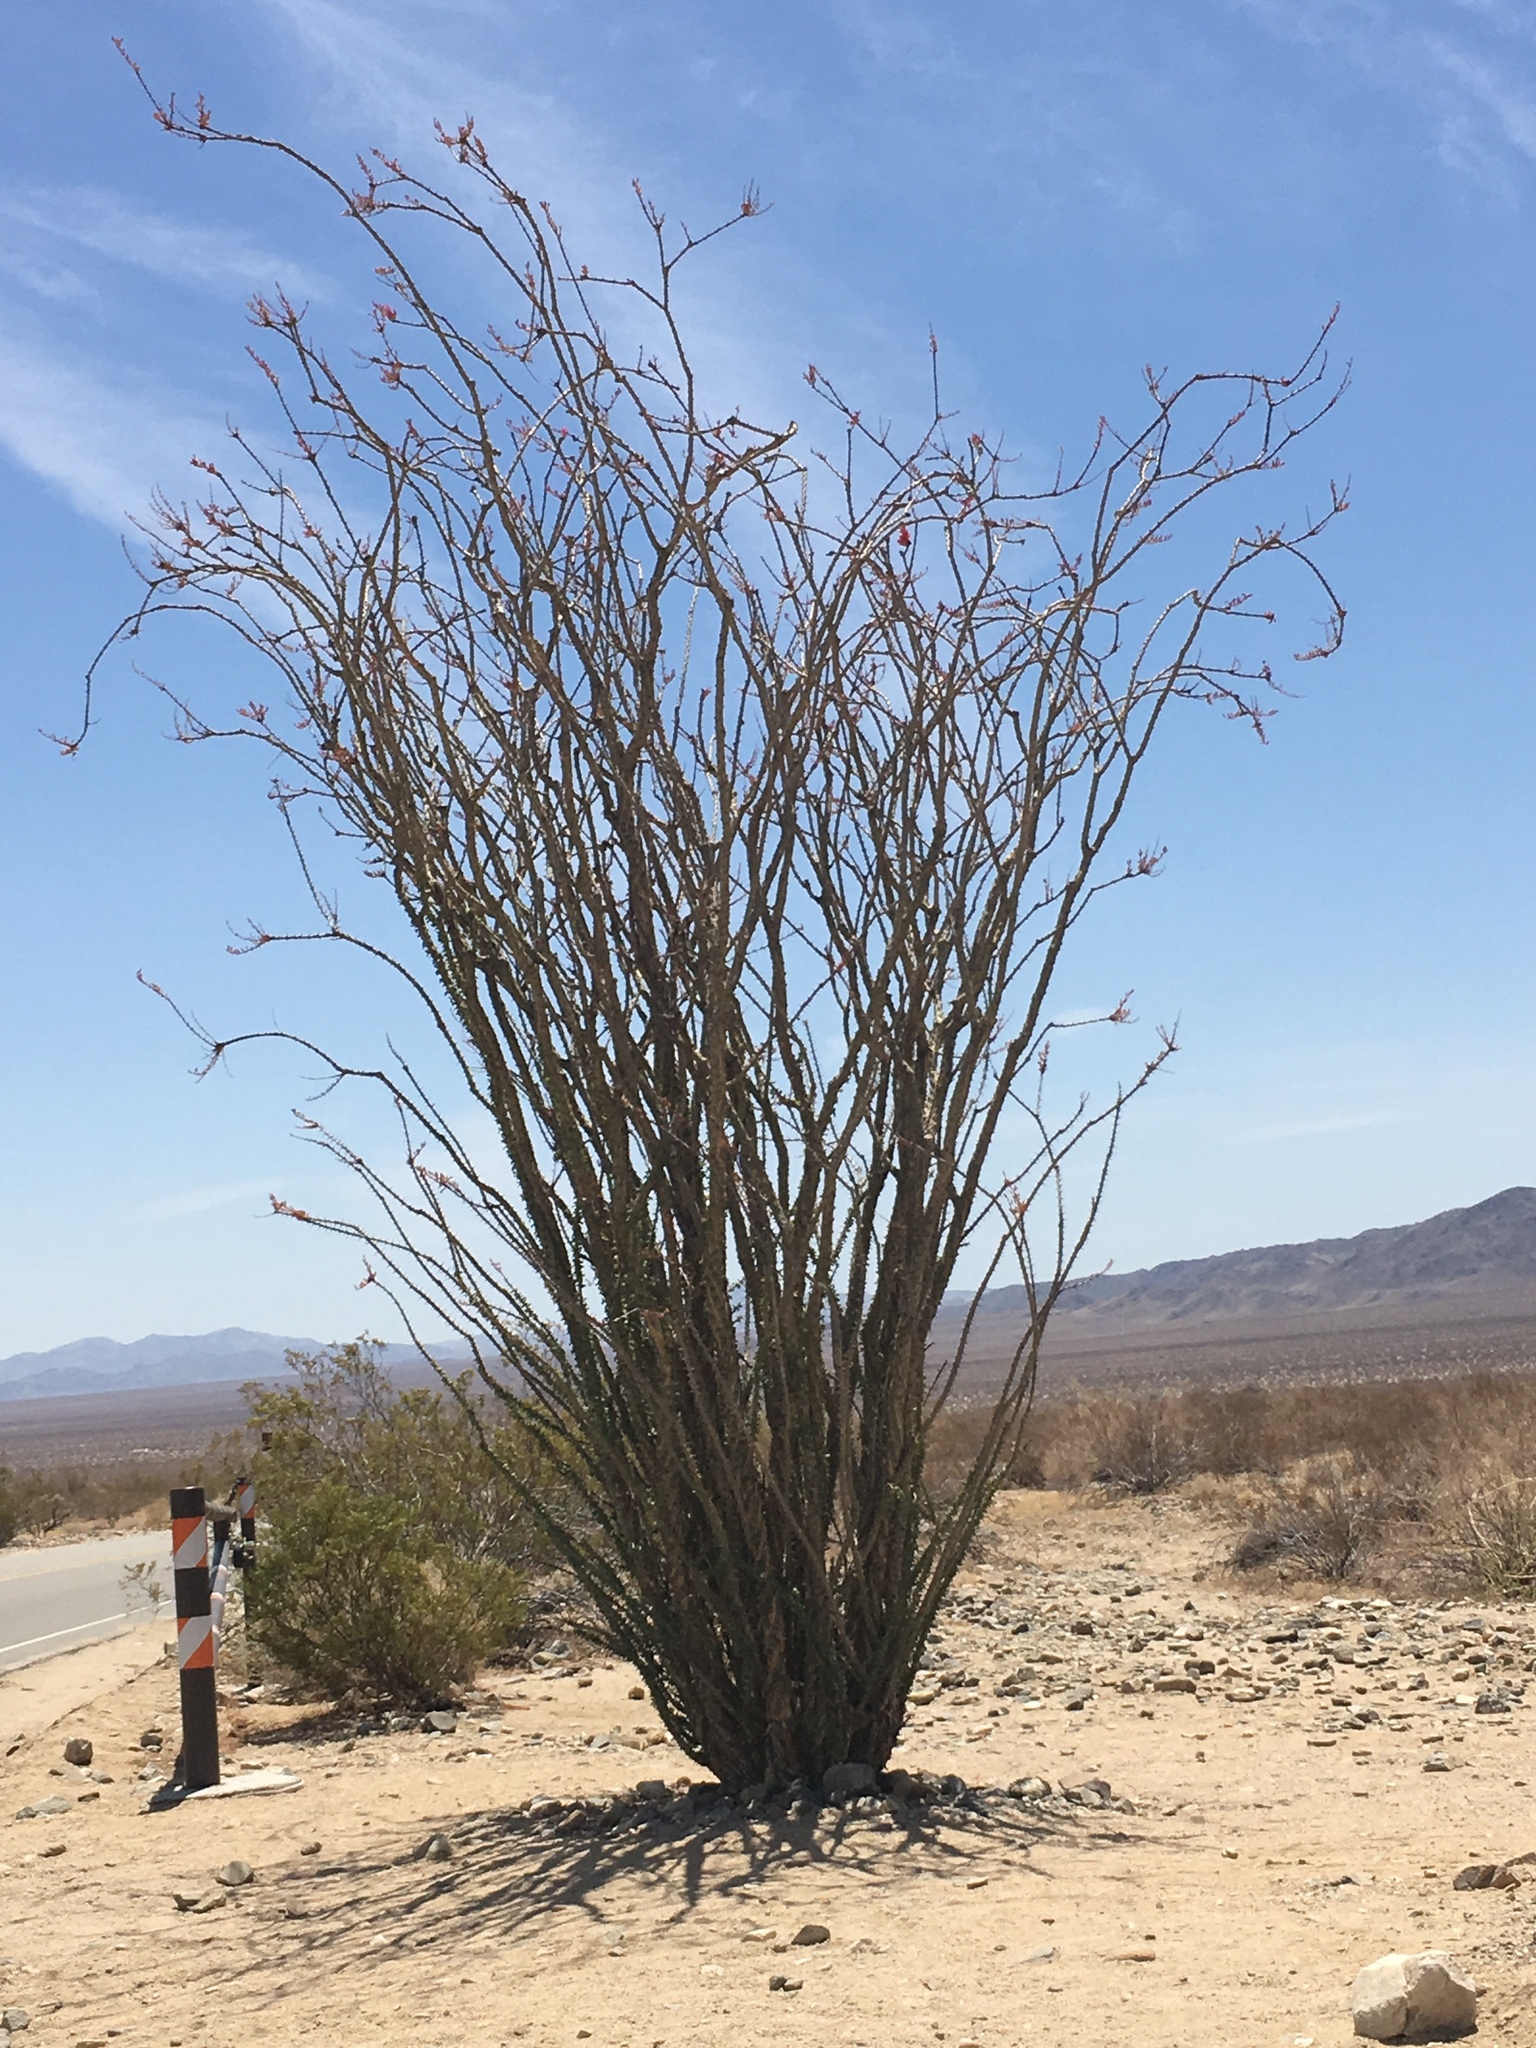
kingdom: Plantae
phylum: Tracheophyta
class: Magnoliopsida
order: Ericales
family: Fouquieriaceae
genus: Fouquieria
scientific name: Fouquieria splendens
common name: Vine-cactus
